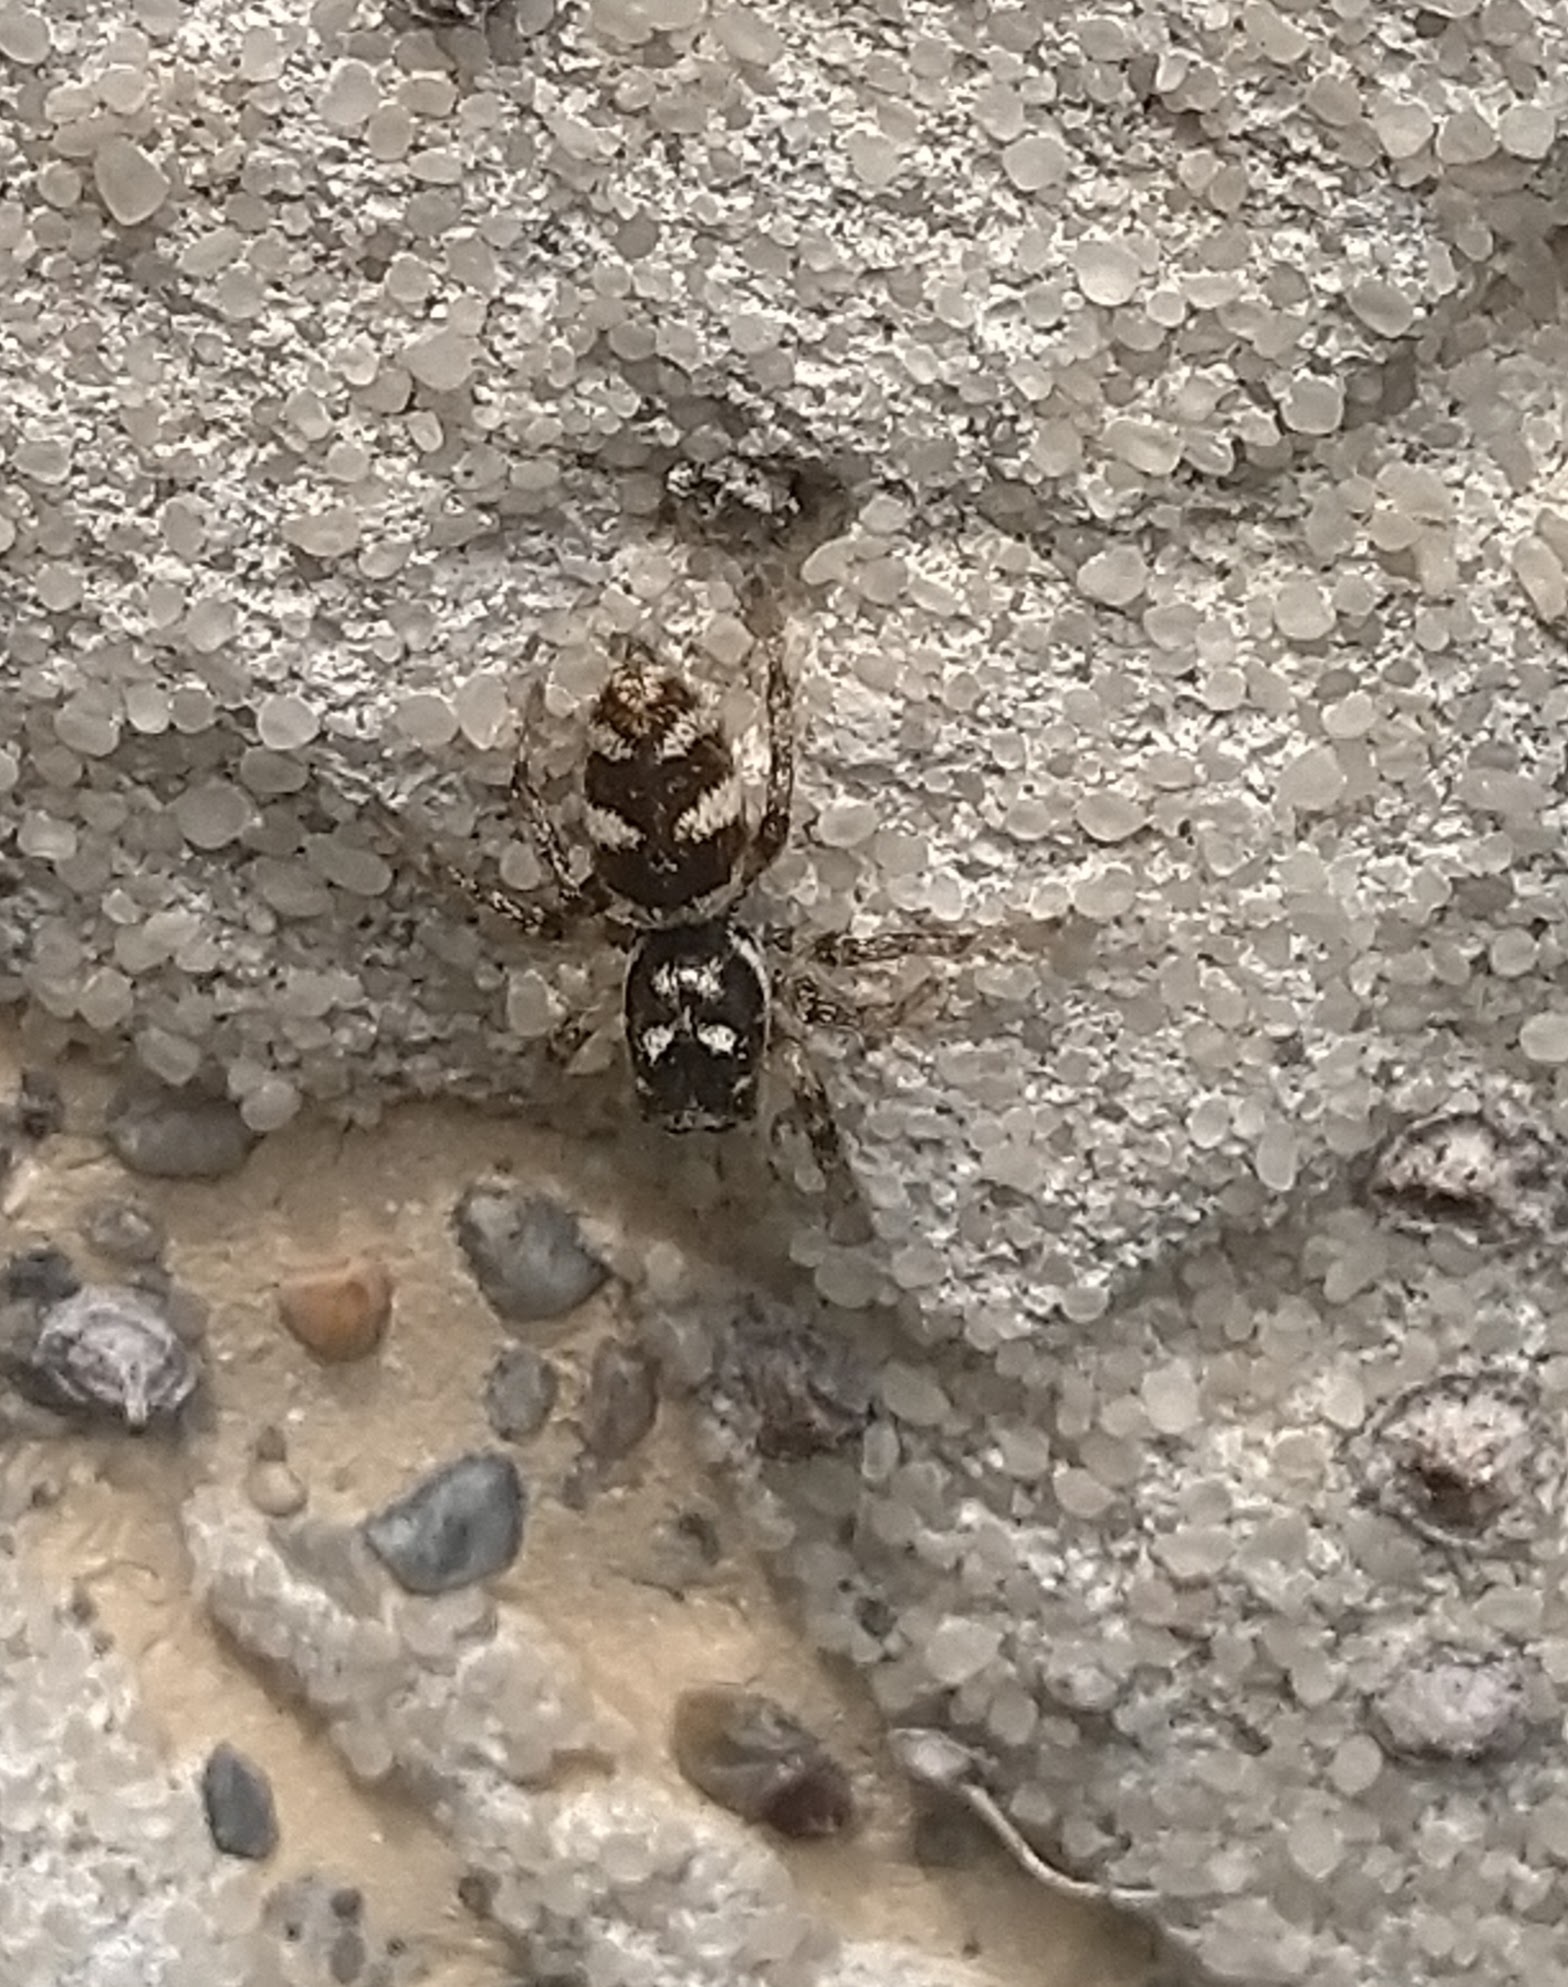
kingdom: Animalia
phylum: Arthropoda
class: Arachnida
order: Araneae
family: Salticidae
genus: Salticus
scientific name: Salticus scenicus
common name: Zebra jumper
